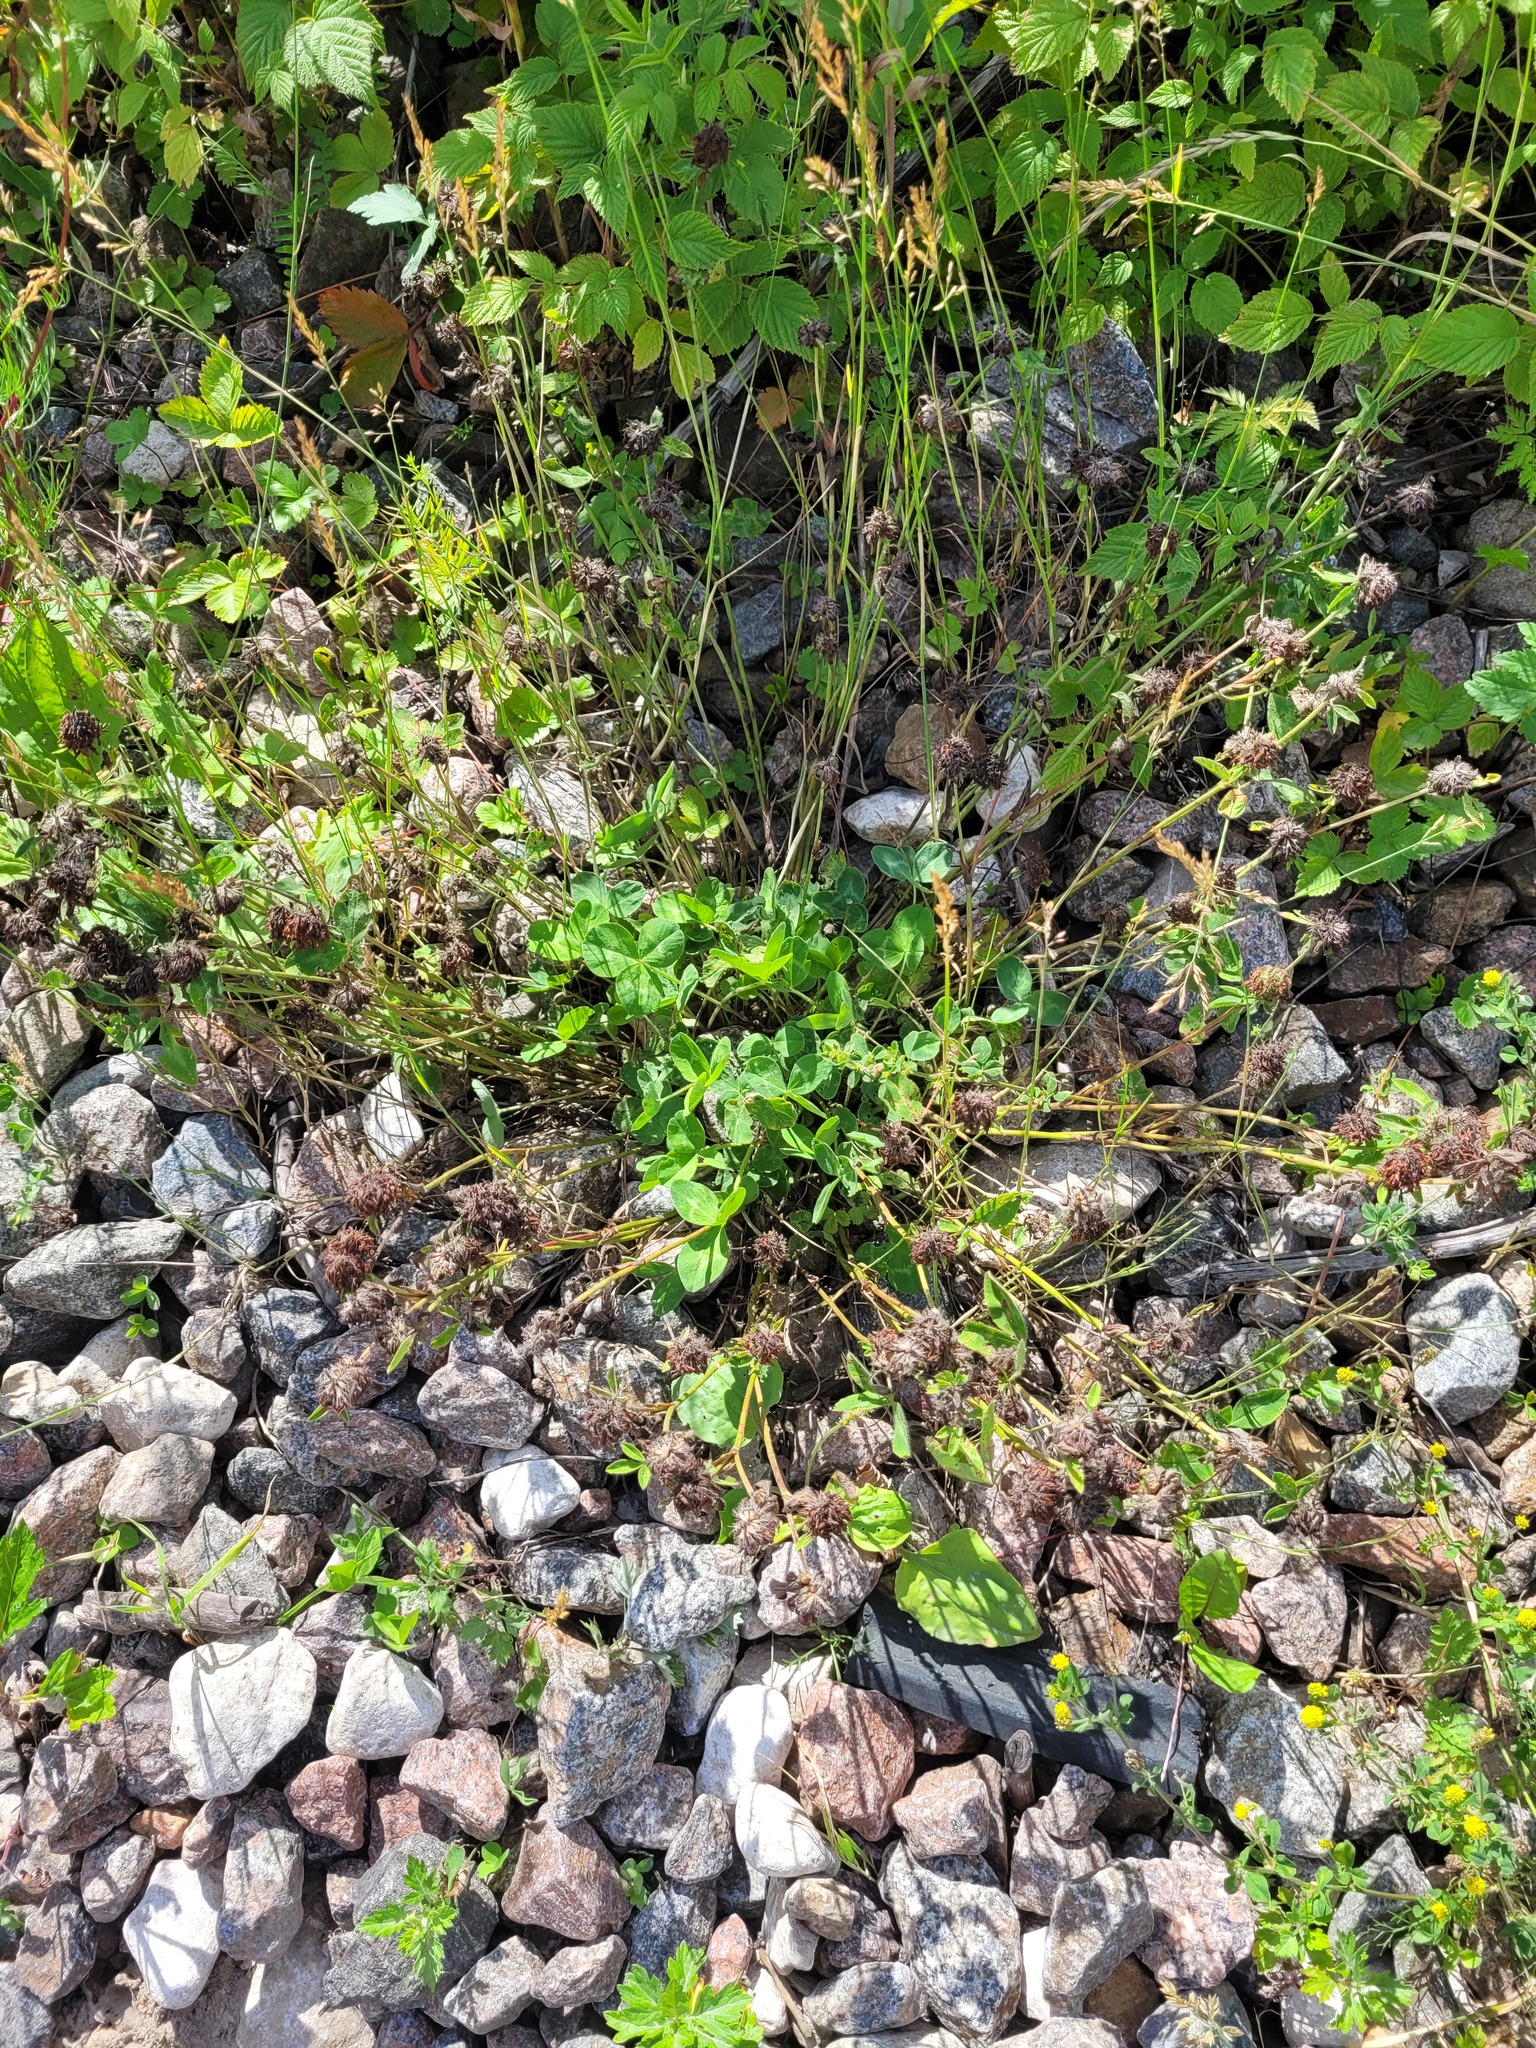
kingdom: Plantae
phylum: Tracheophyta
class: Magnoliopsida
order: Fabales
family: Fabaceae
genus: Trifolium
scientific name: Trifolium pratense
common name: Red clover
